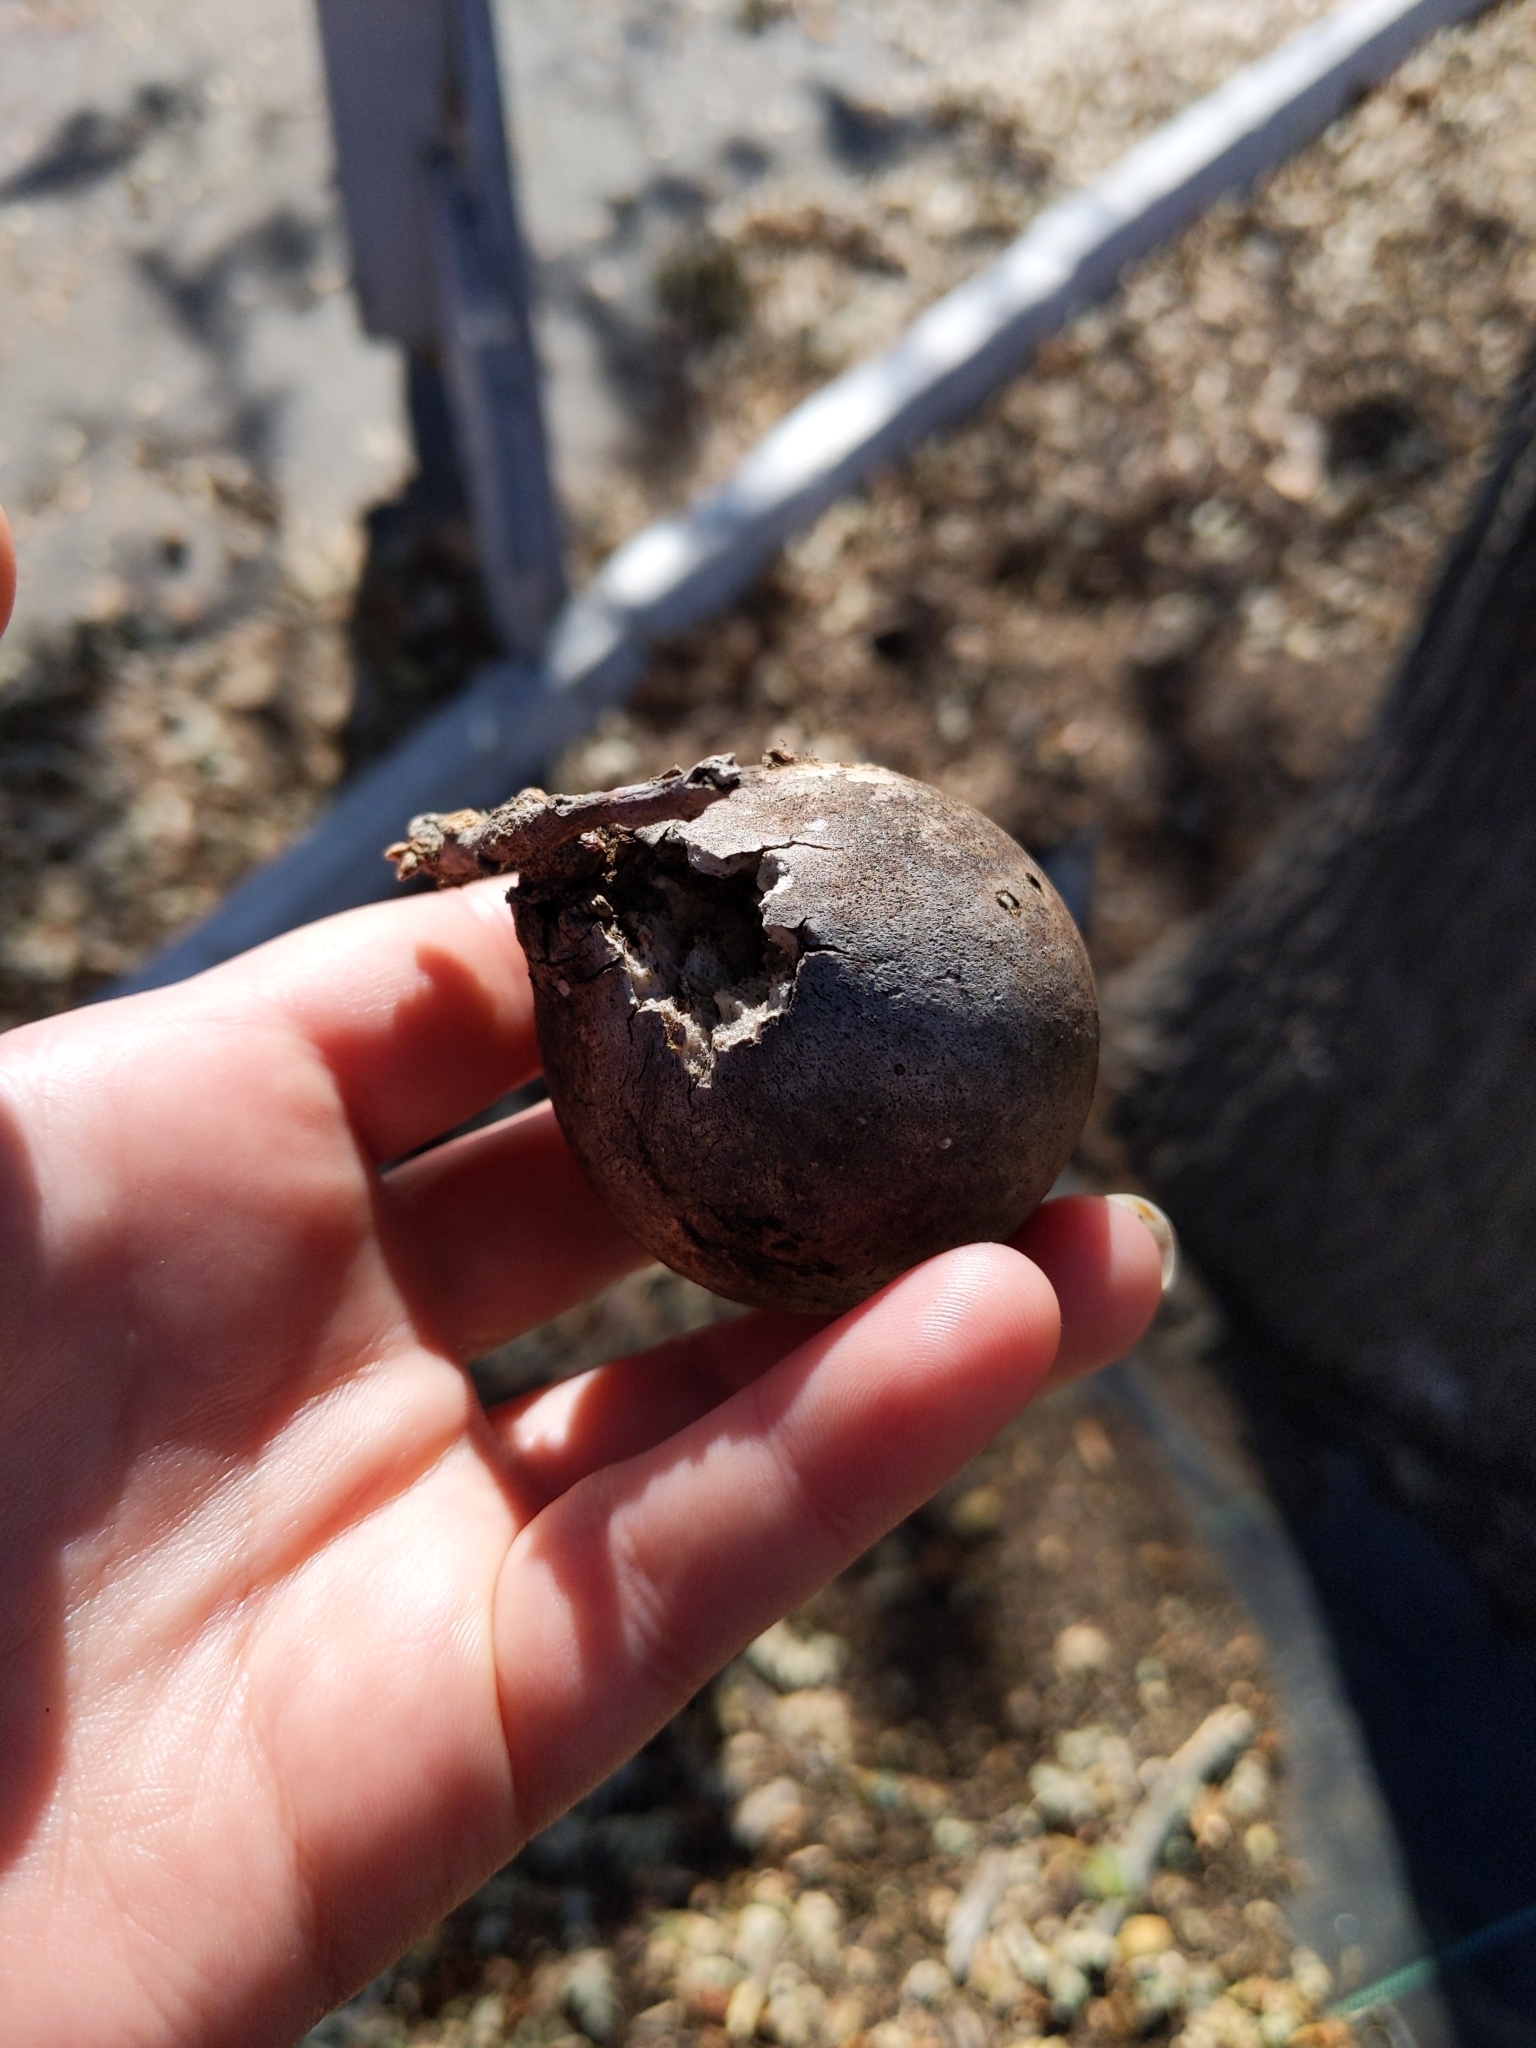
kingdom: Animalia
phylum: Arthropoda
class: Insecta
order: Hymenoptera
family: Cynipidae
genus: Andricus
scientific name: Andricus quercuscalifornicus
